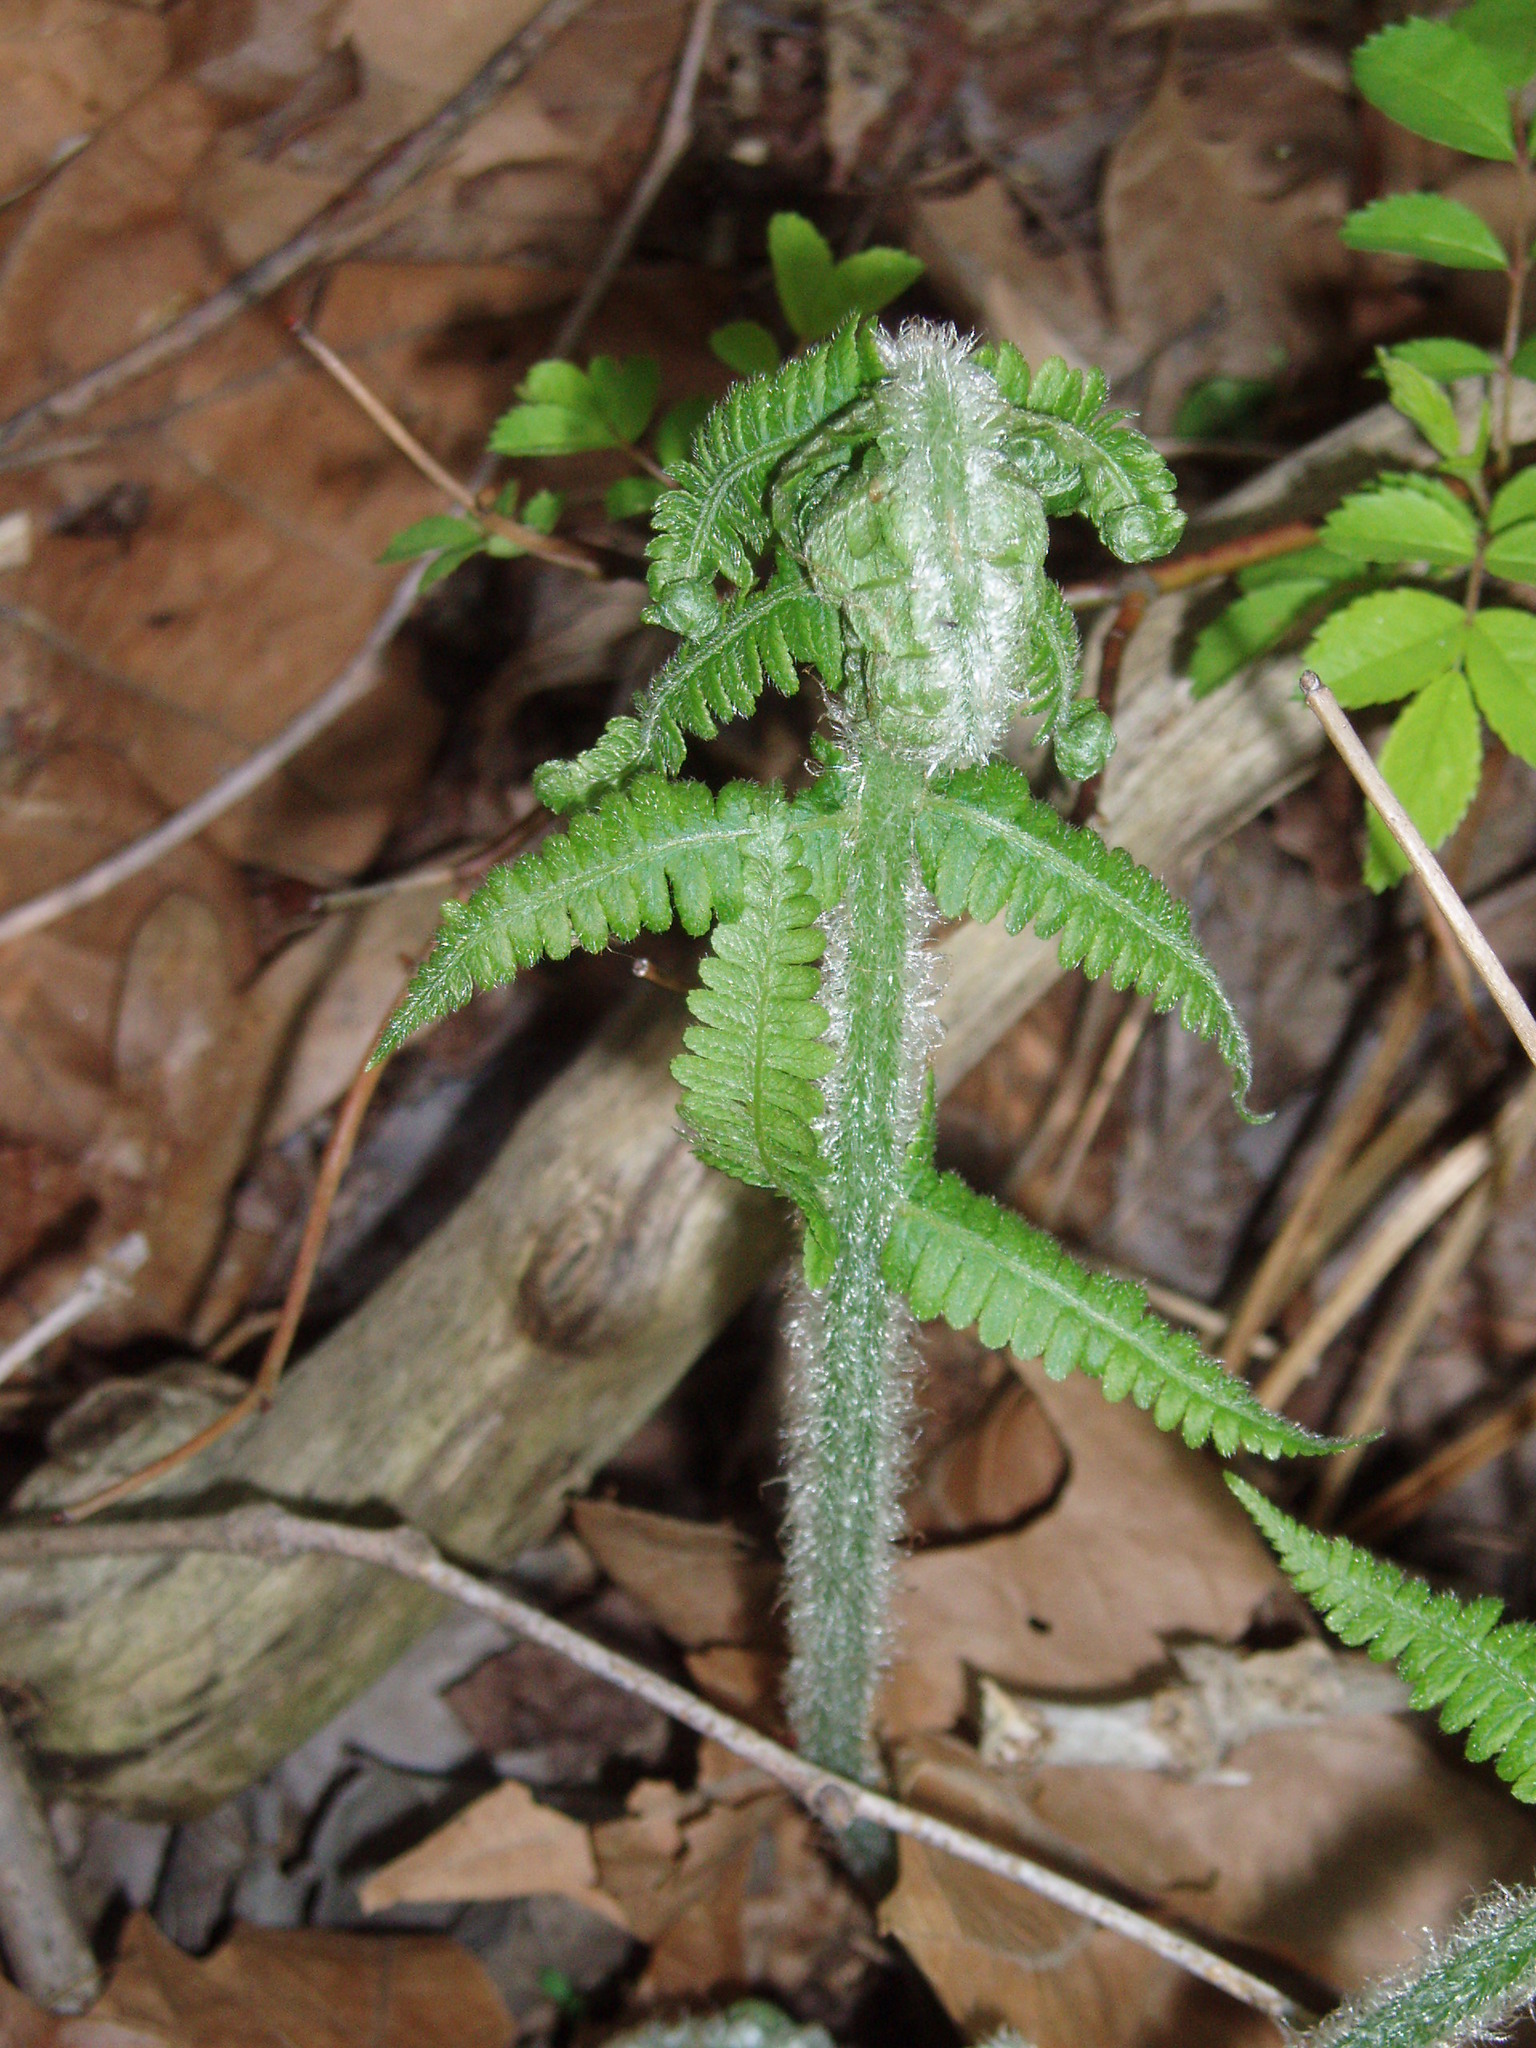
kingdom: Plantae
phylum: Tracheophyta
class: Polypodiopsida
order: Polypodiales
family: Athyriaceae
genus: Deparia
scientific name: Deparia acrostichoides
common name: Silver false spleenwort
